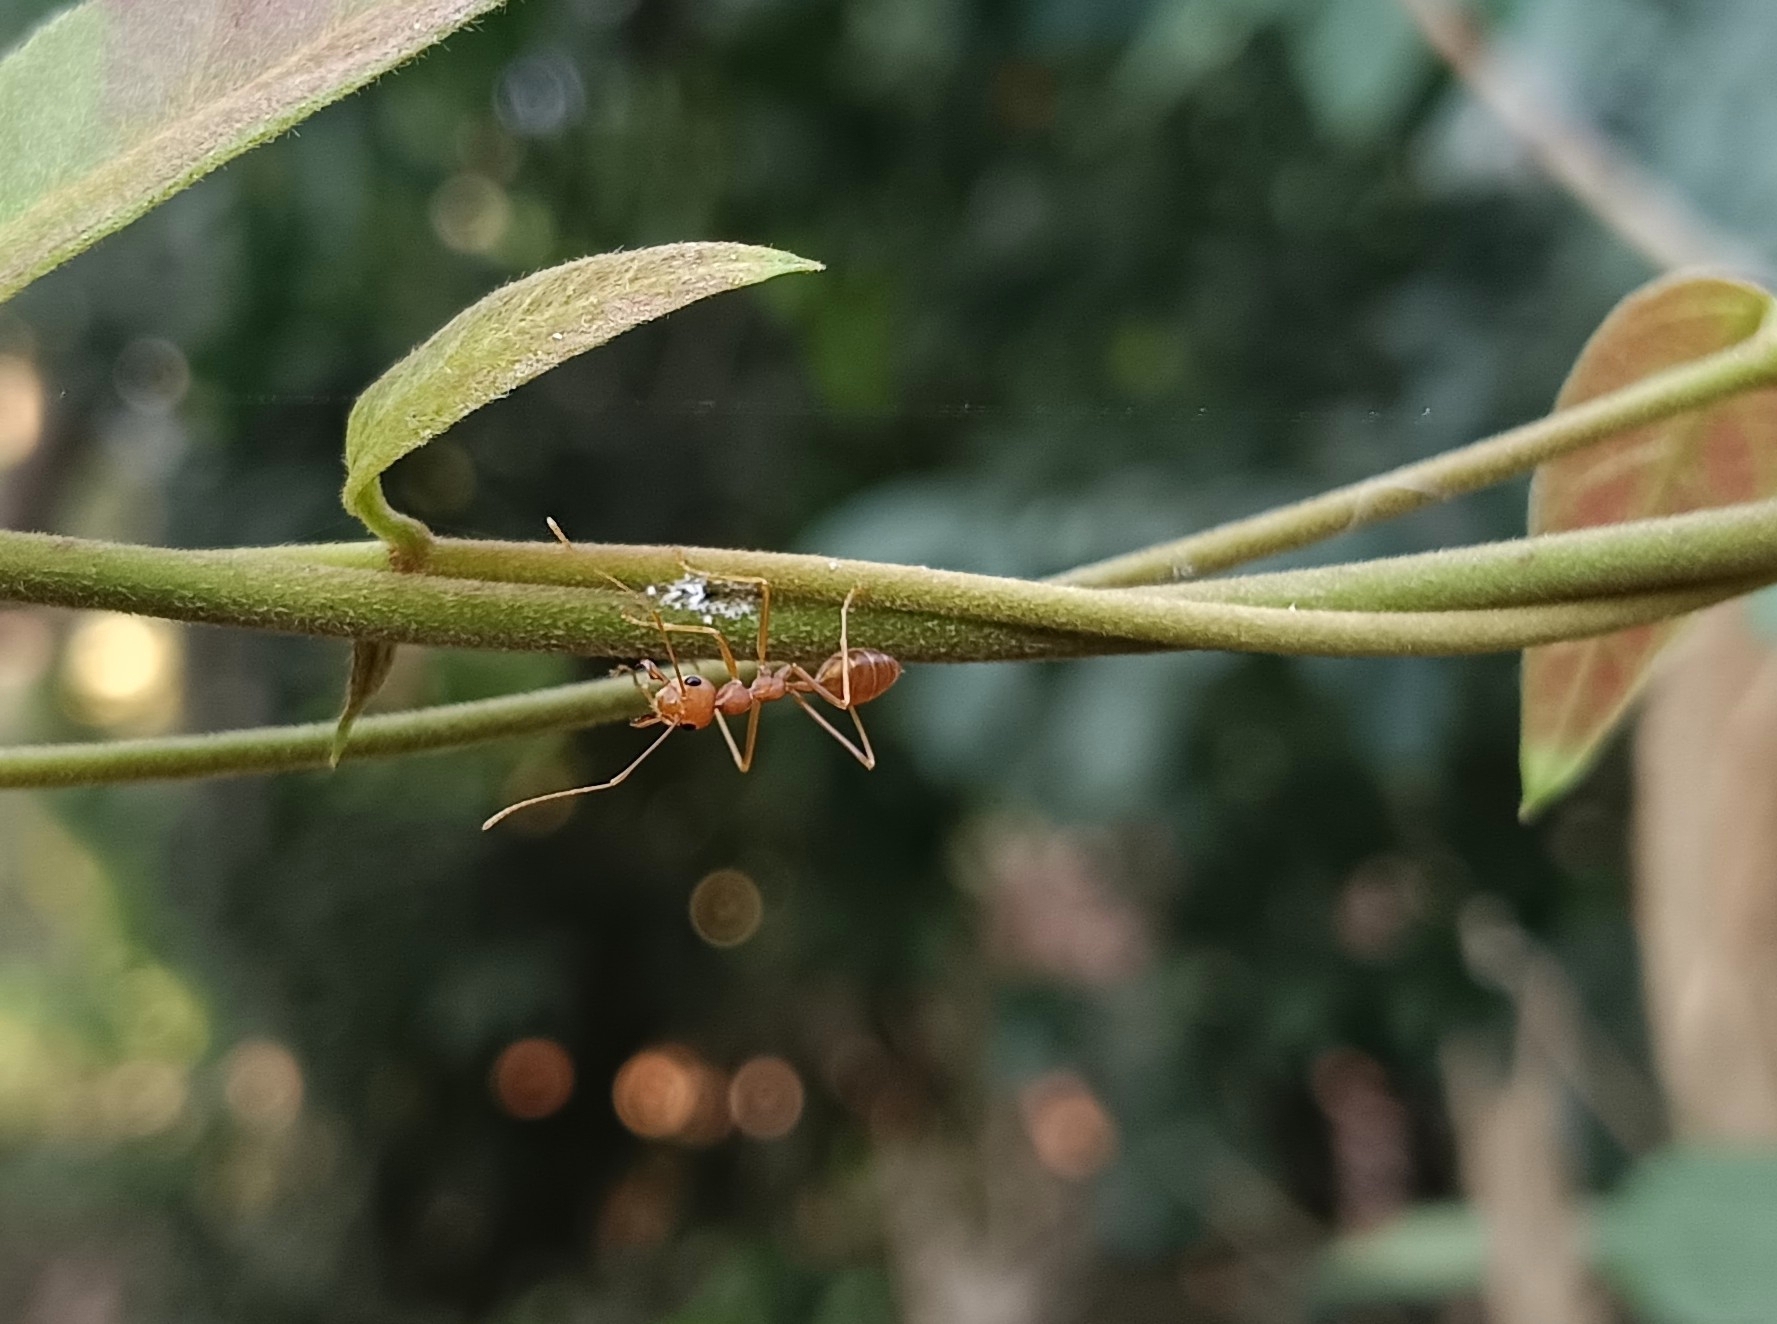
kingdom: Animalia
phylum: Arthropoda
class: Insecta
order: Hymenoptera
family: Formicidae
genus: Oecophylla
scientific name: Oecophylla smaragdina
